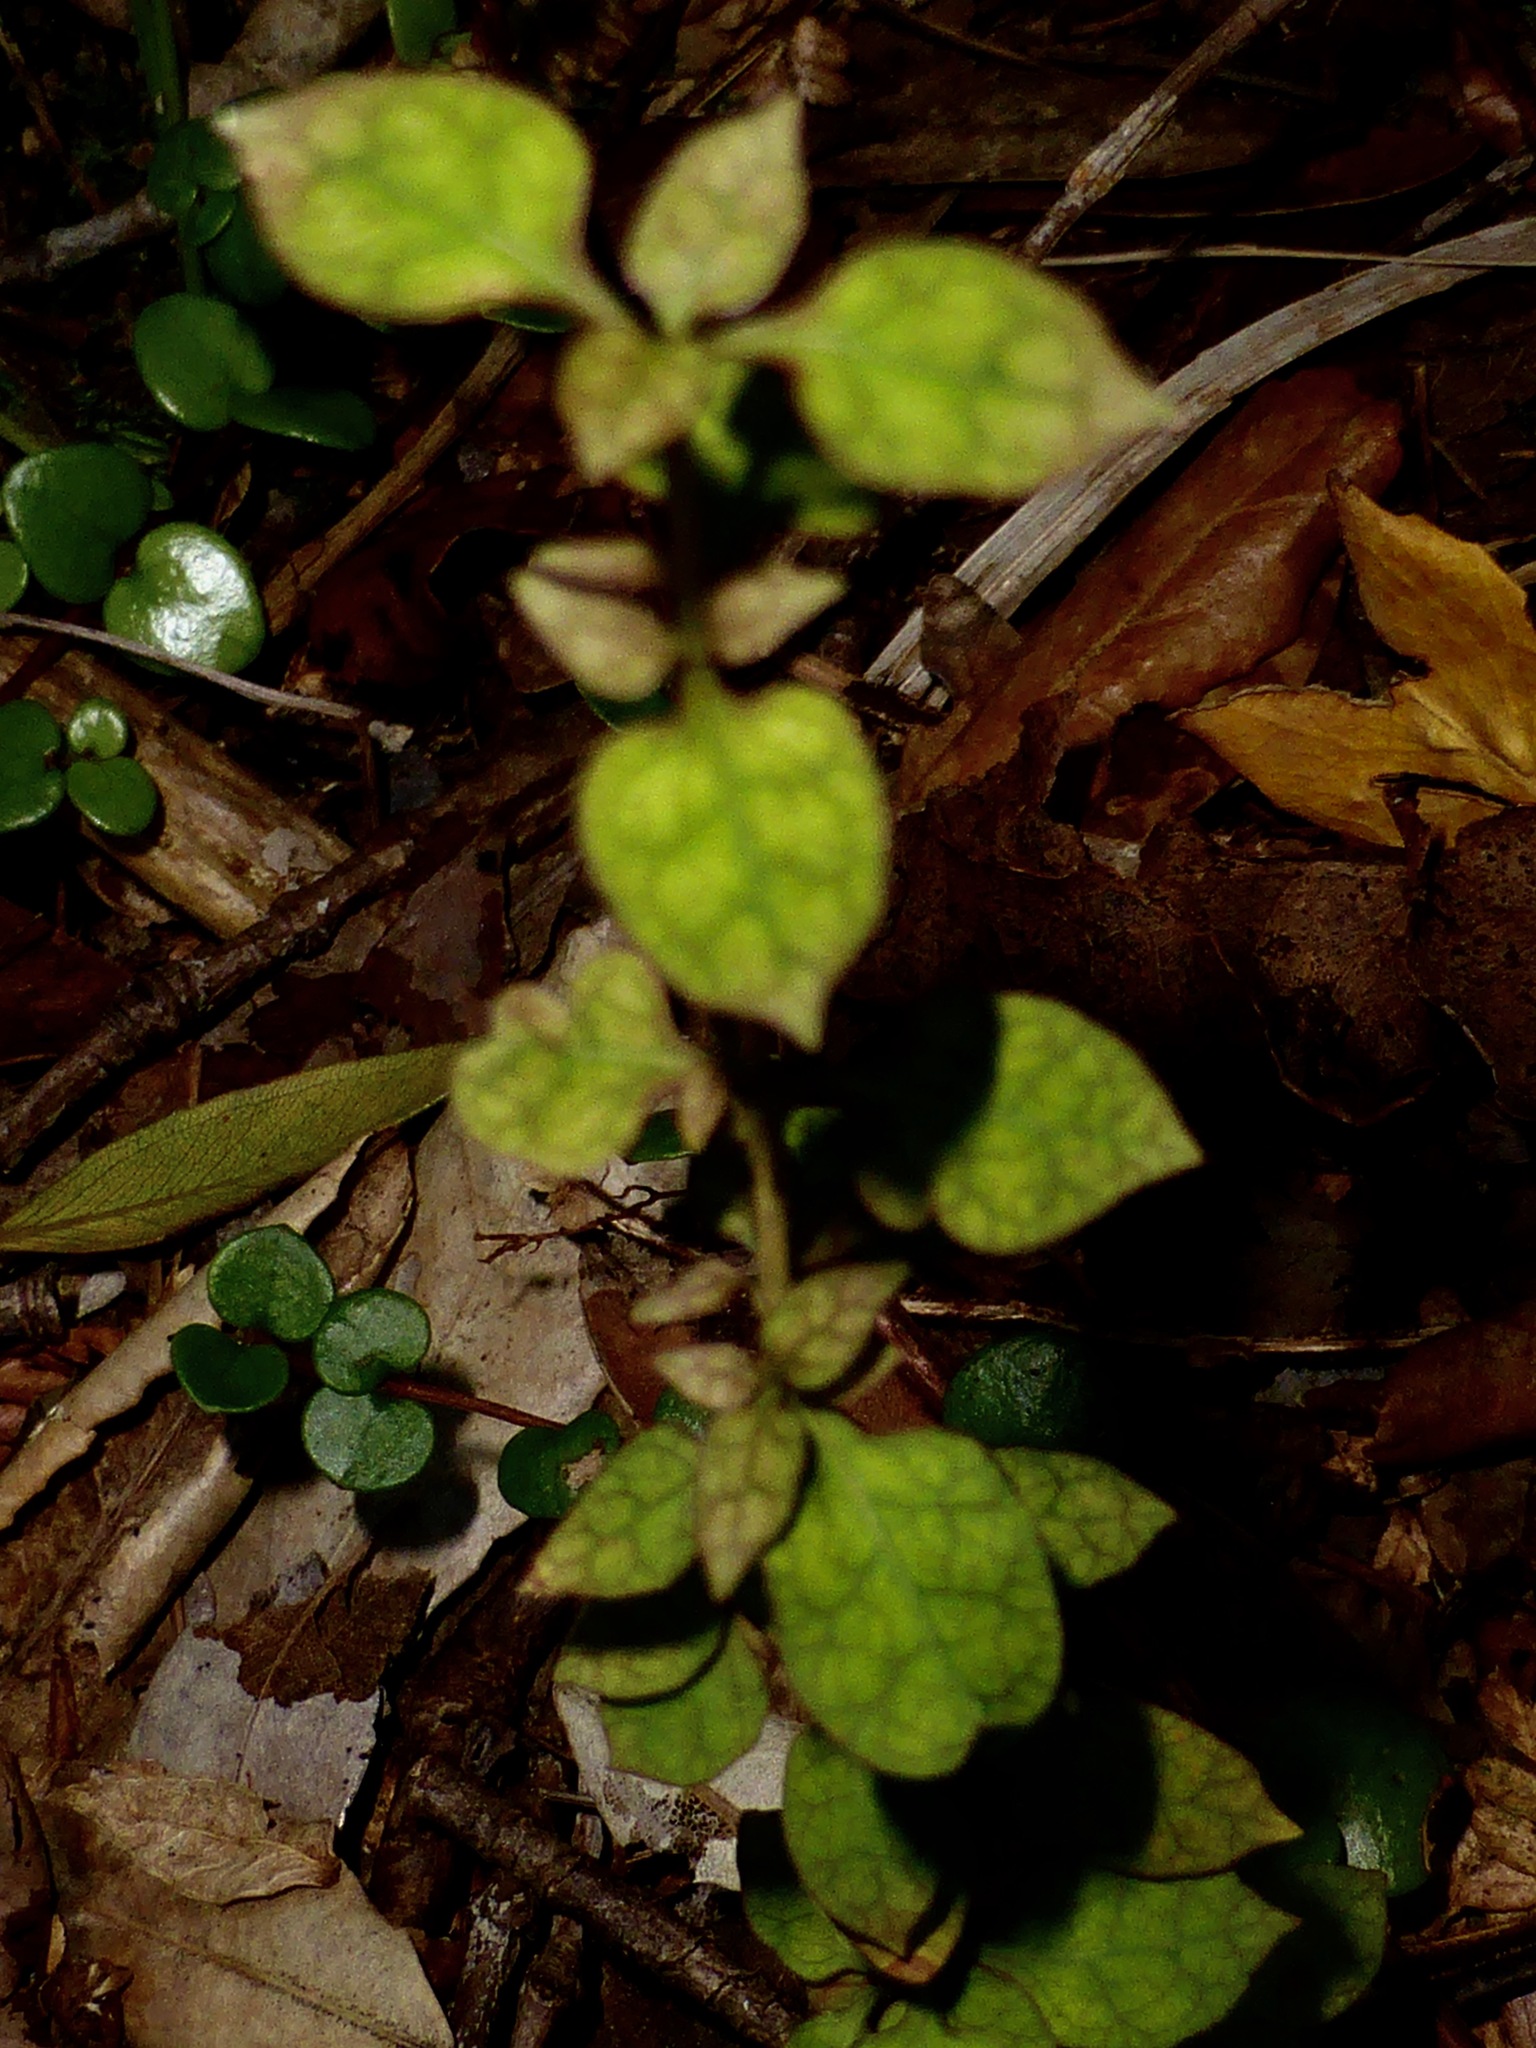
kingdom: Plantae
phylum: Tracheophyta
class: Magnoliopsida
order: Gentianales
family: Rubiaceae
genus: Coprosma
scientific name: Coprosma areolata
